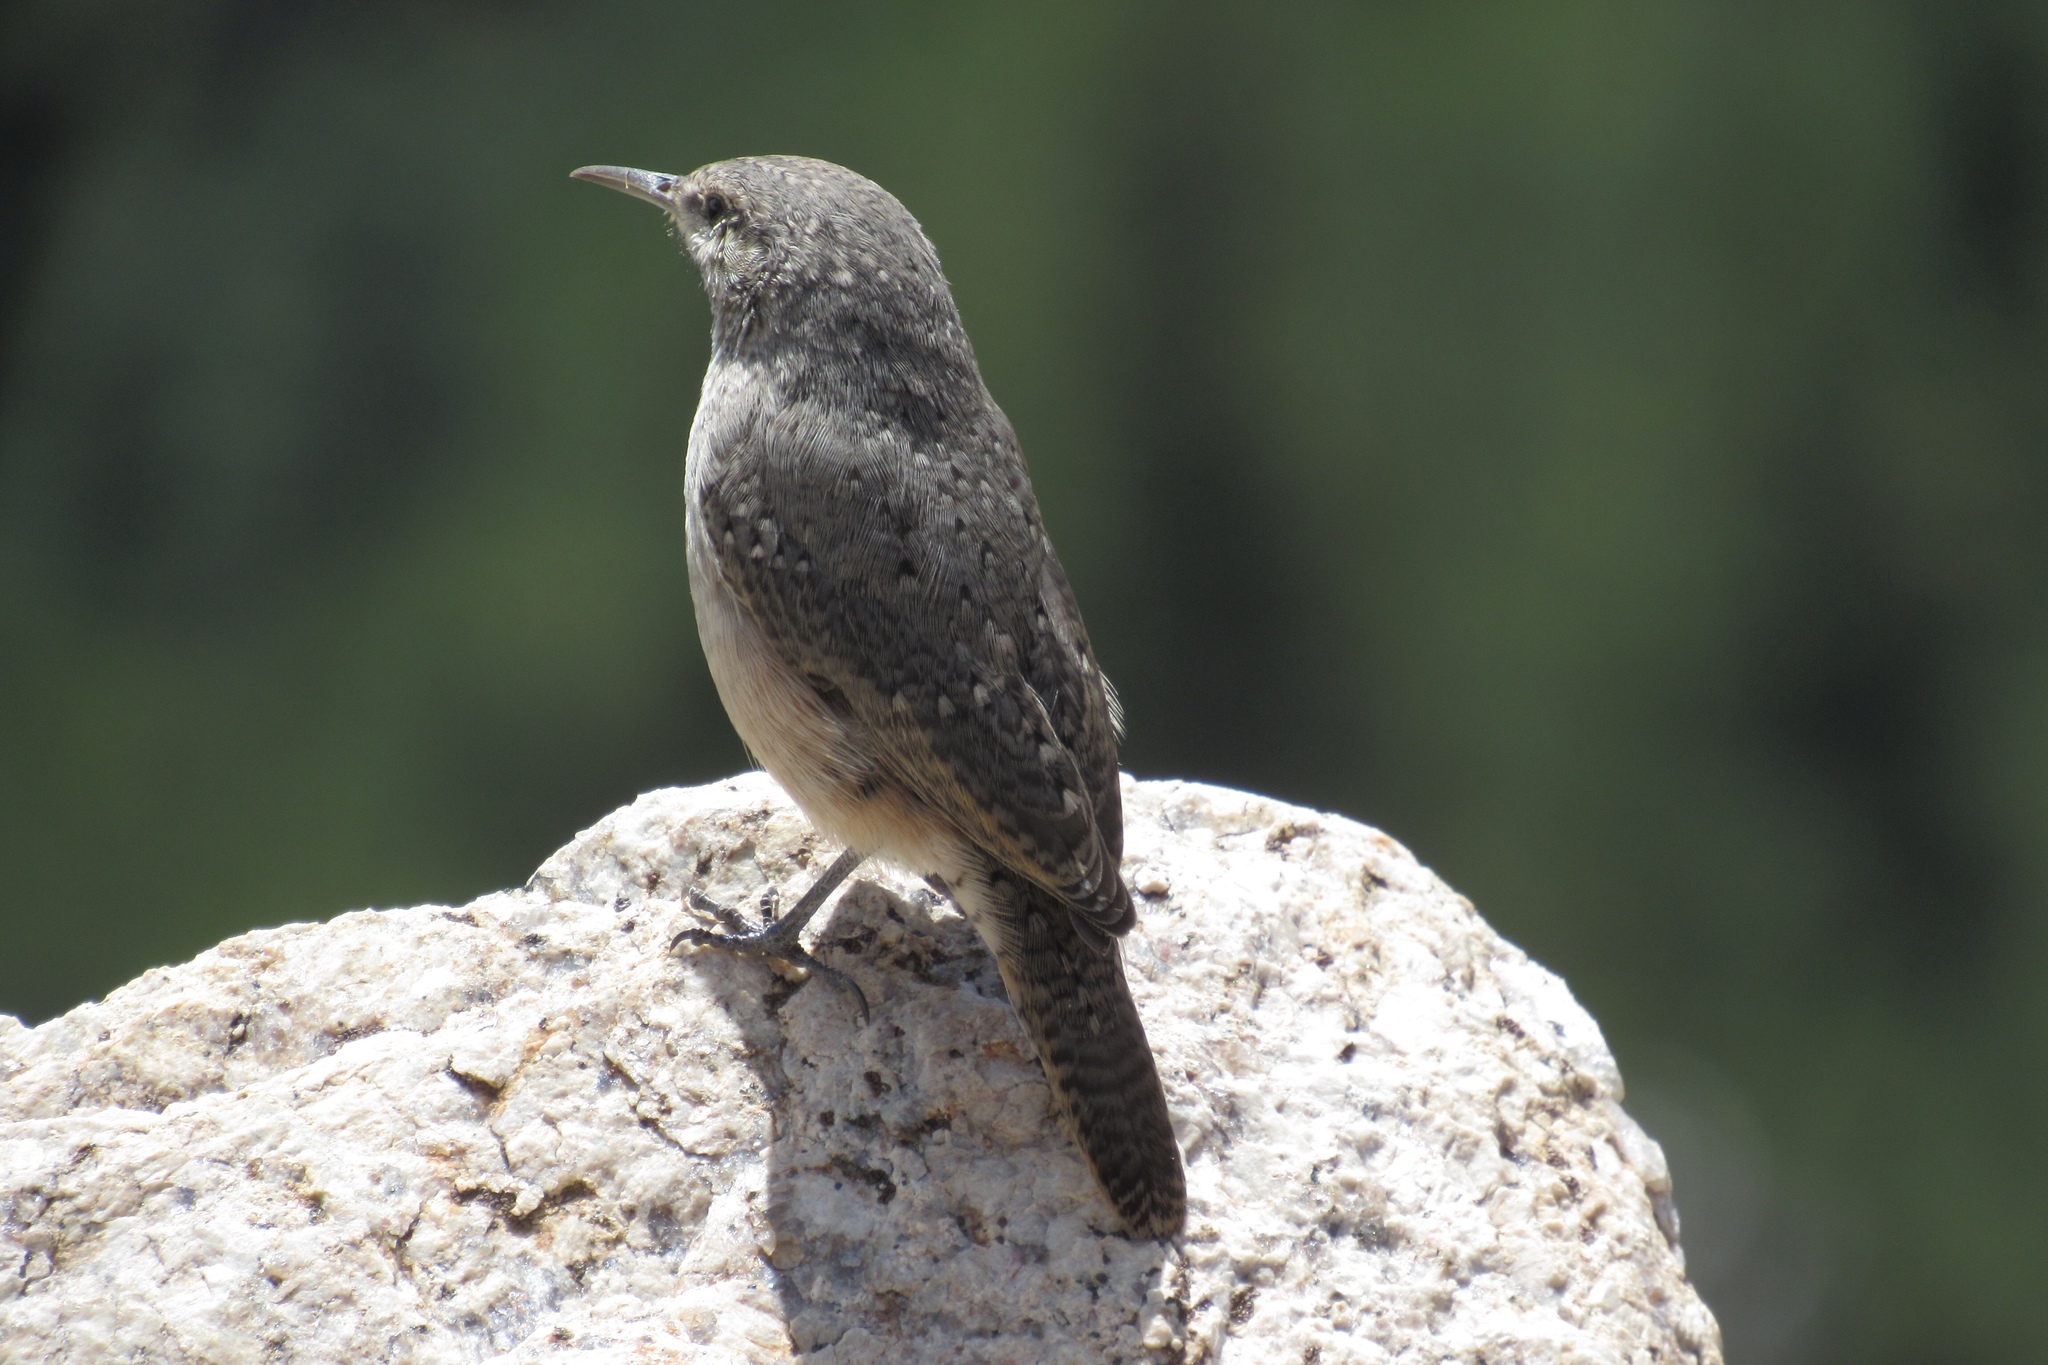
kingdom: Animalia
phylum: Chordata
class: Aves
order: Passeriformes
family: Troglodytidae
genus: Salpinctes
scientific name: Salpinctes obsoletus
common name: Rock wren
